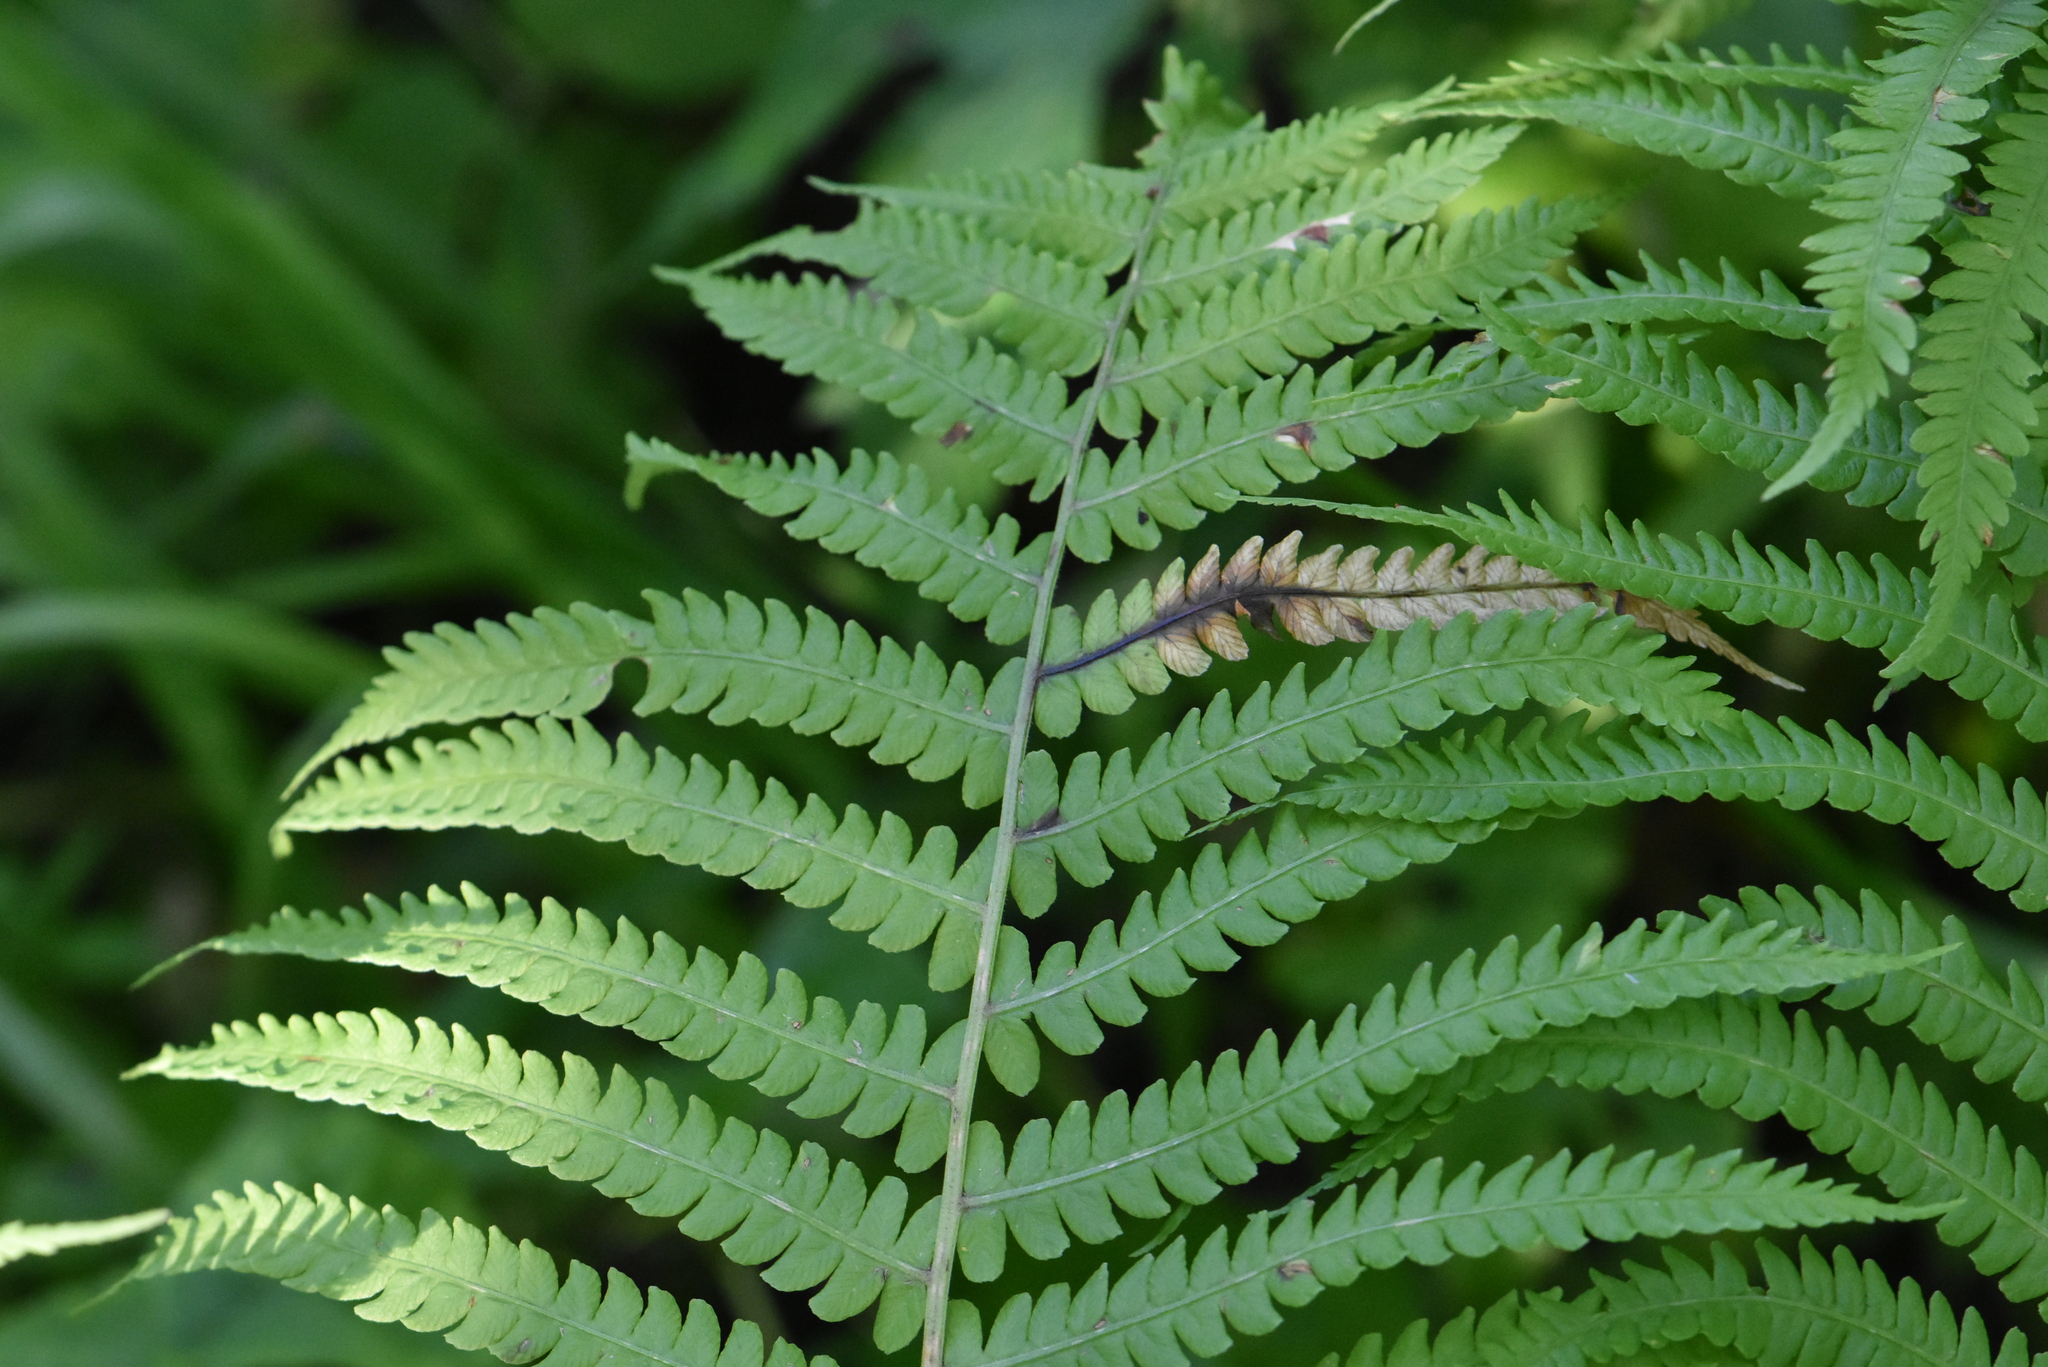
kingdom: Plantae
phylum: Tracheophyta
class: Polypodiopsida
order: Polypodiales
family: Onocleaceae
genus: Matteuccia
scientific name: Matteuccia struthiopteris
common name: Ostrich fern
